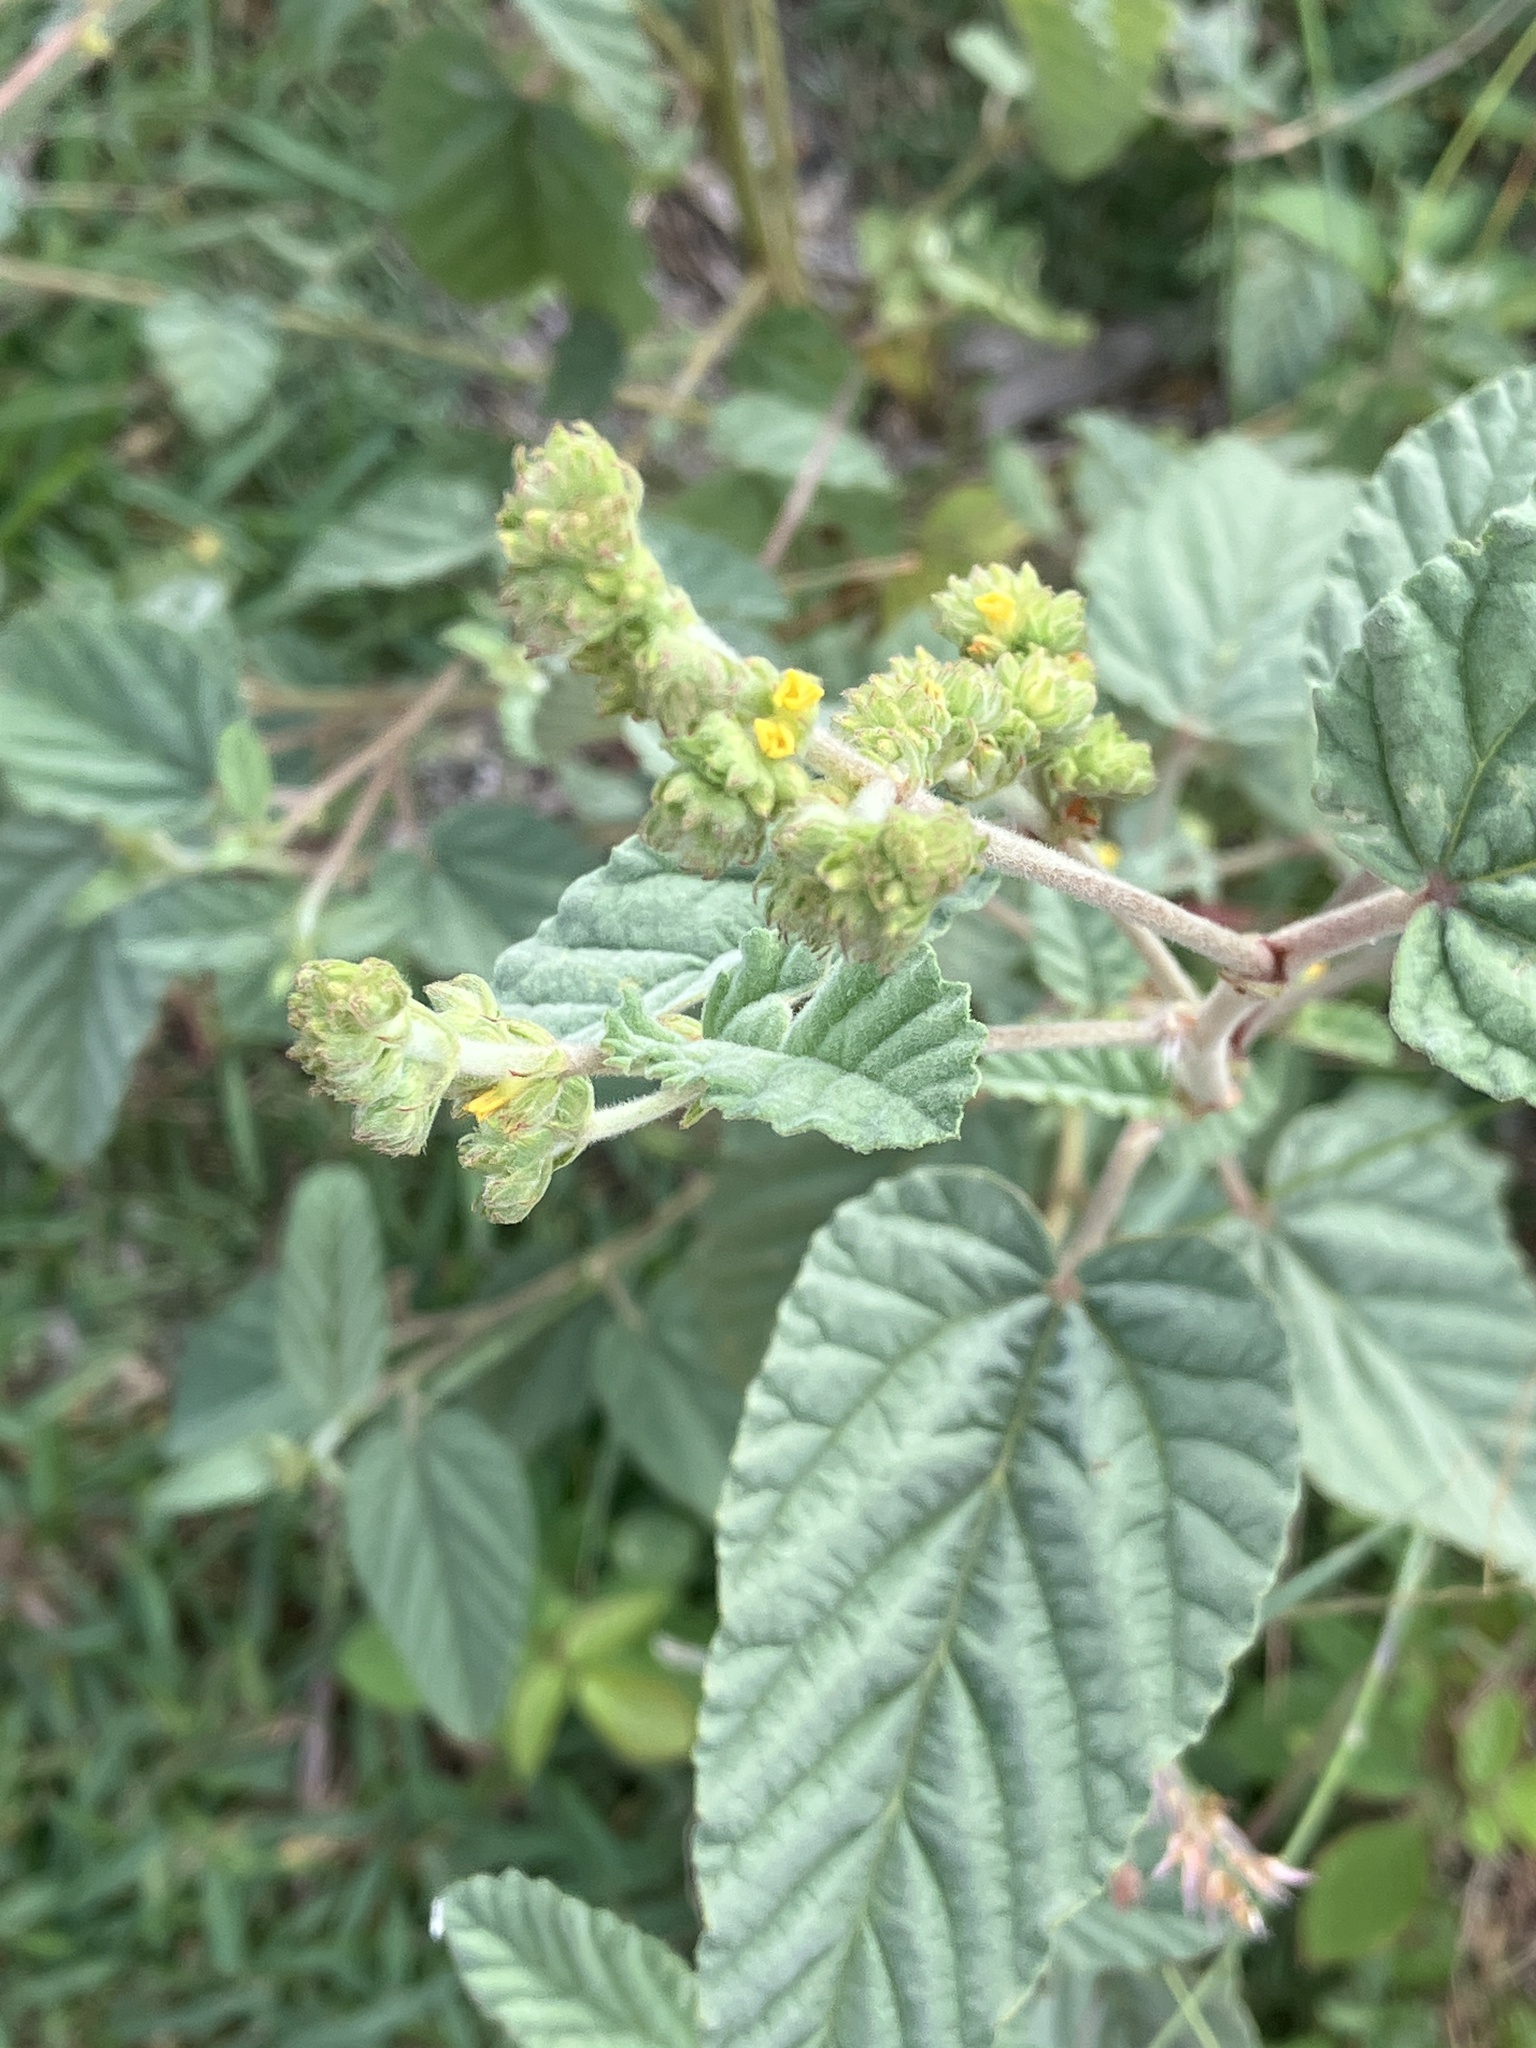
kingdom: Plantae
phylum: Tracheophyta
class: Magnoliopsida
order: Malvales
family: Malvaceae
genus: Waltheria
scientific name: Waltheria indica
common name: Leather-coat
